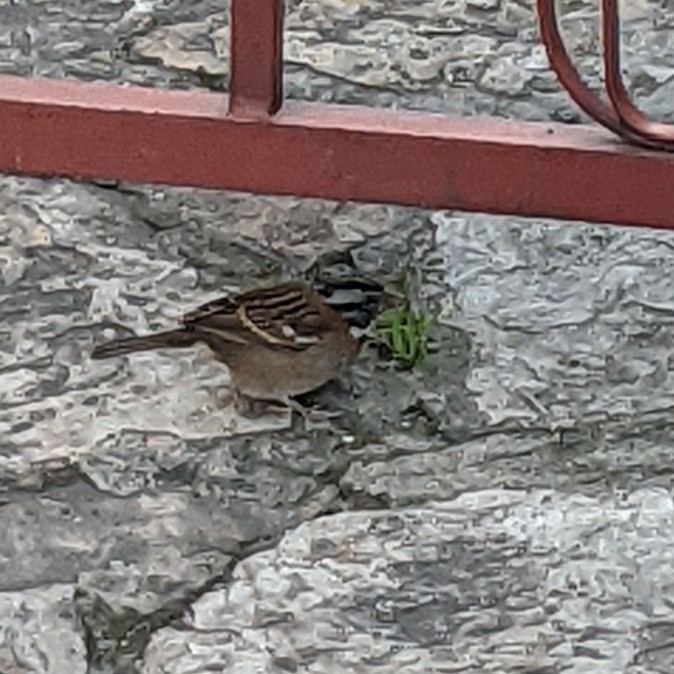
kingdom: Animalia
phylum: Chordata
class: Aves
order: Passeriformes
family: Passerellidae
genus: Zonotrichia
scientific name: Zonotrichia capensis
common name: Rufous-collared sparrow
